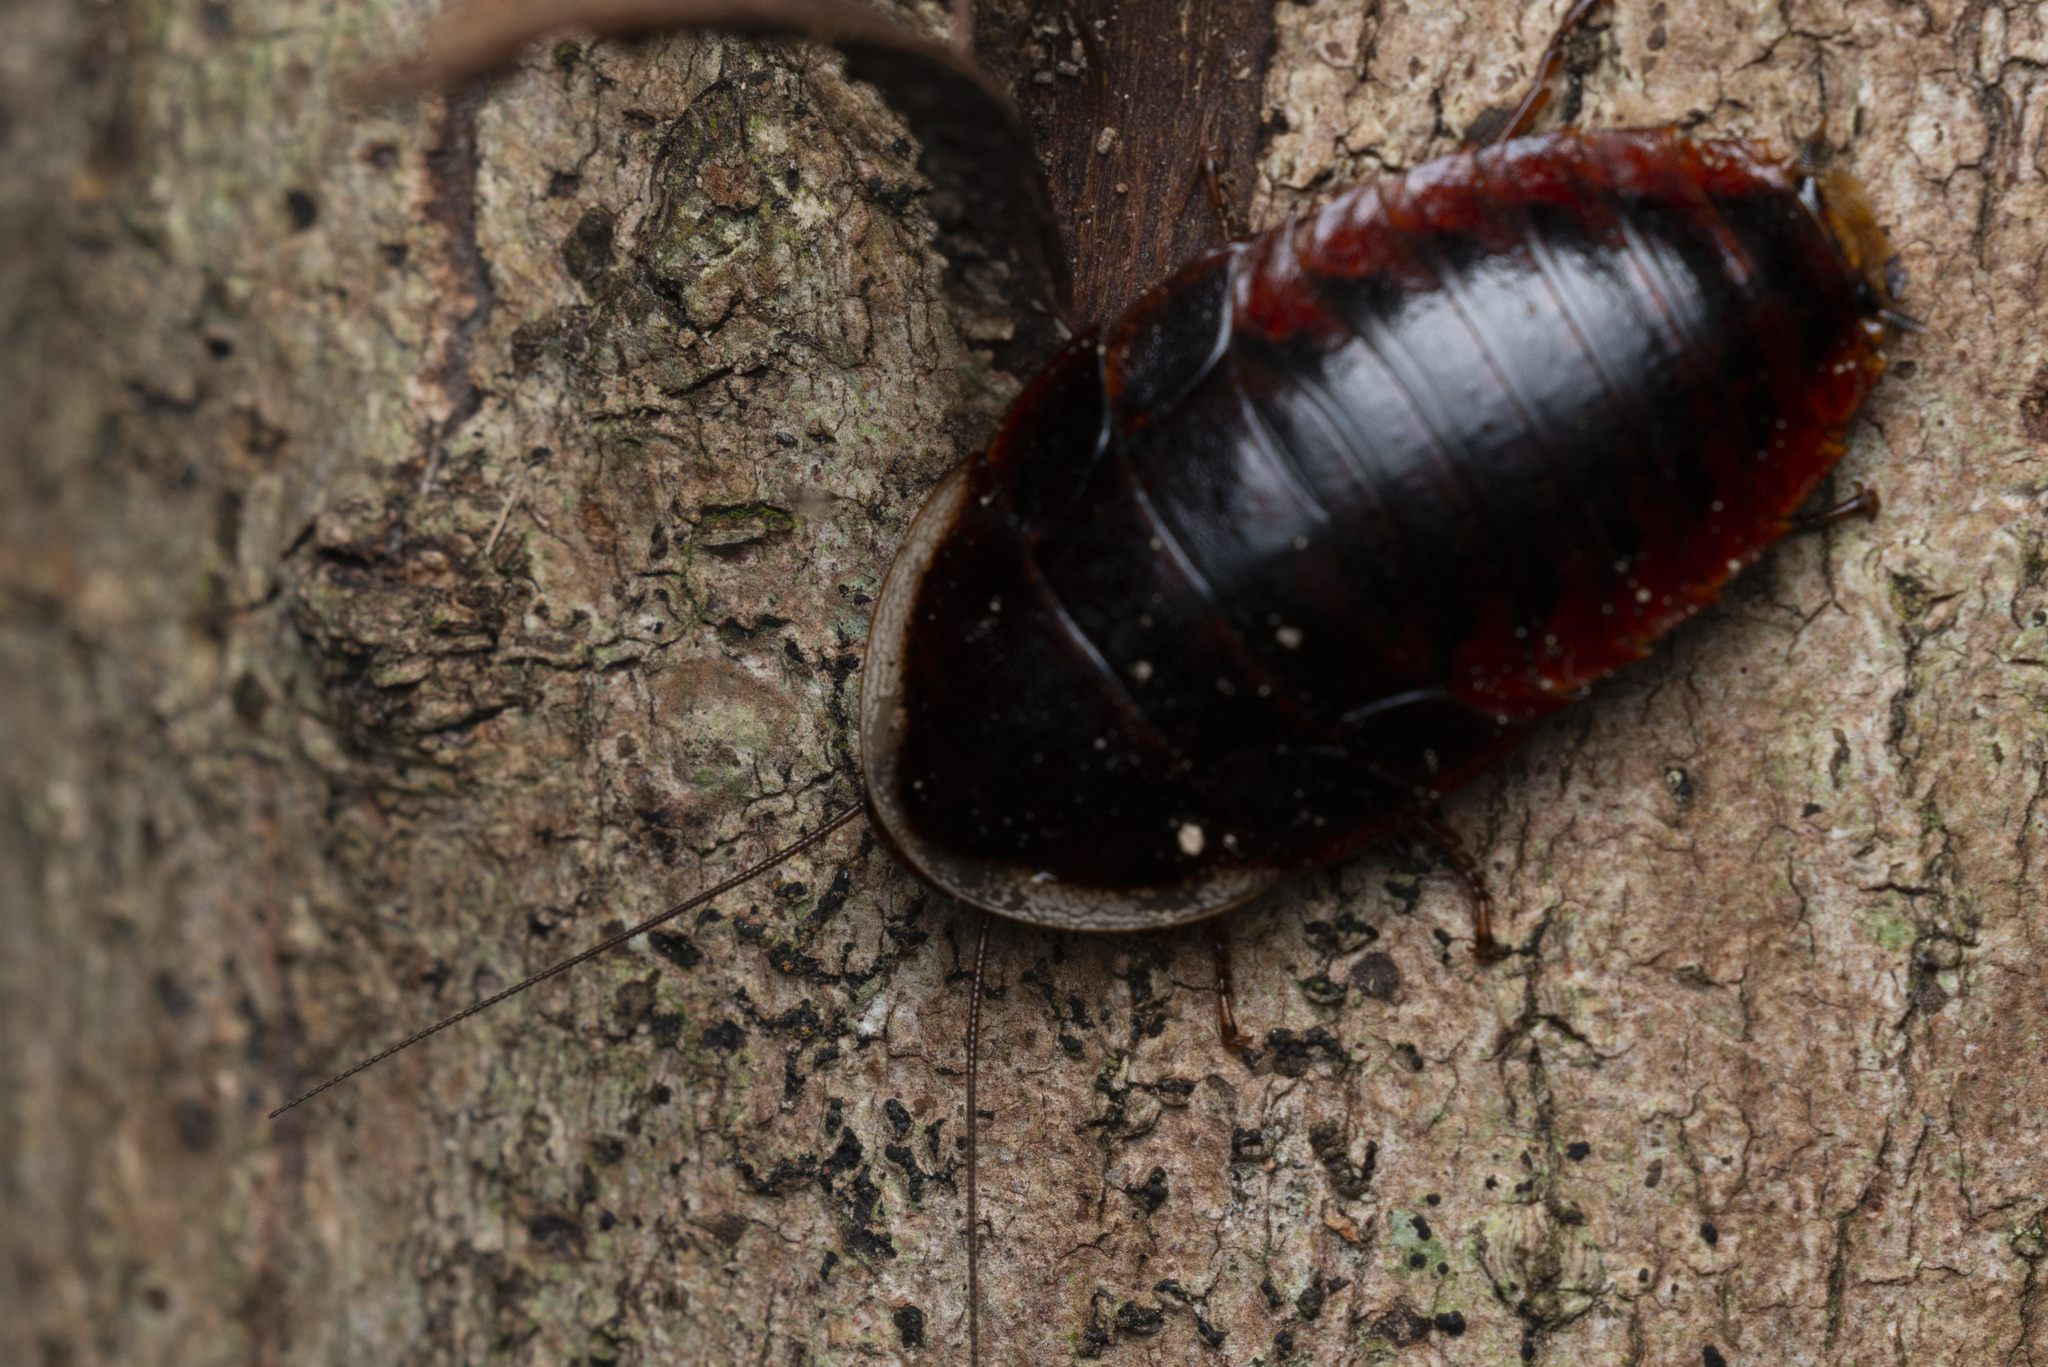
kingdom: Animalia
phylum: Arthropoda
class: Insecta
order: Blattodea
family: Blaberidae
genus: Opisthoplatia
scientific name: Opisthoplatia orientalis
